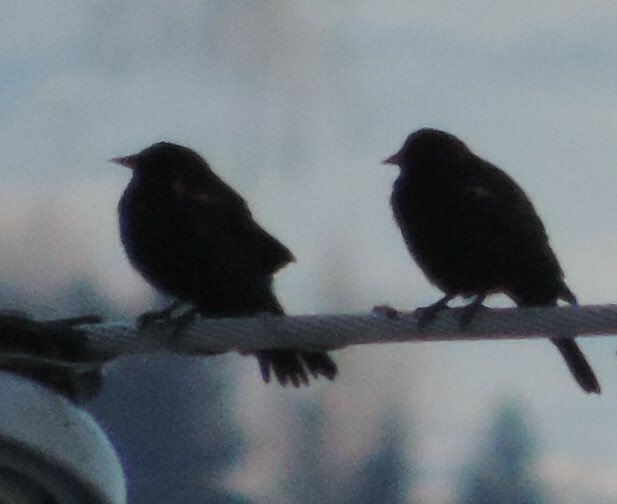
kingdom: Animalia
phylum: Chordata
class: Aves
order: Passeriformes
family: Icteridae
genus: Agelaius
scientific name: Agelaius phoeniceus
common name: Red-winged blackbird
